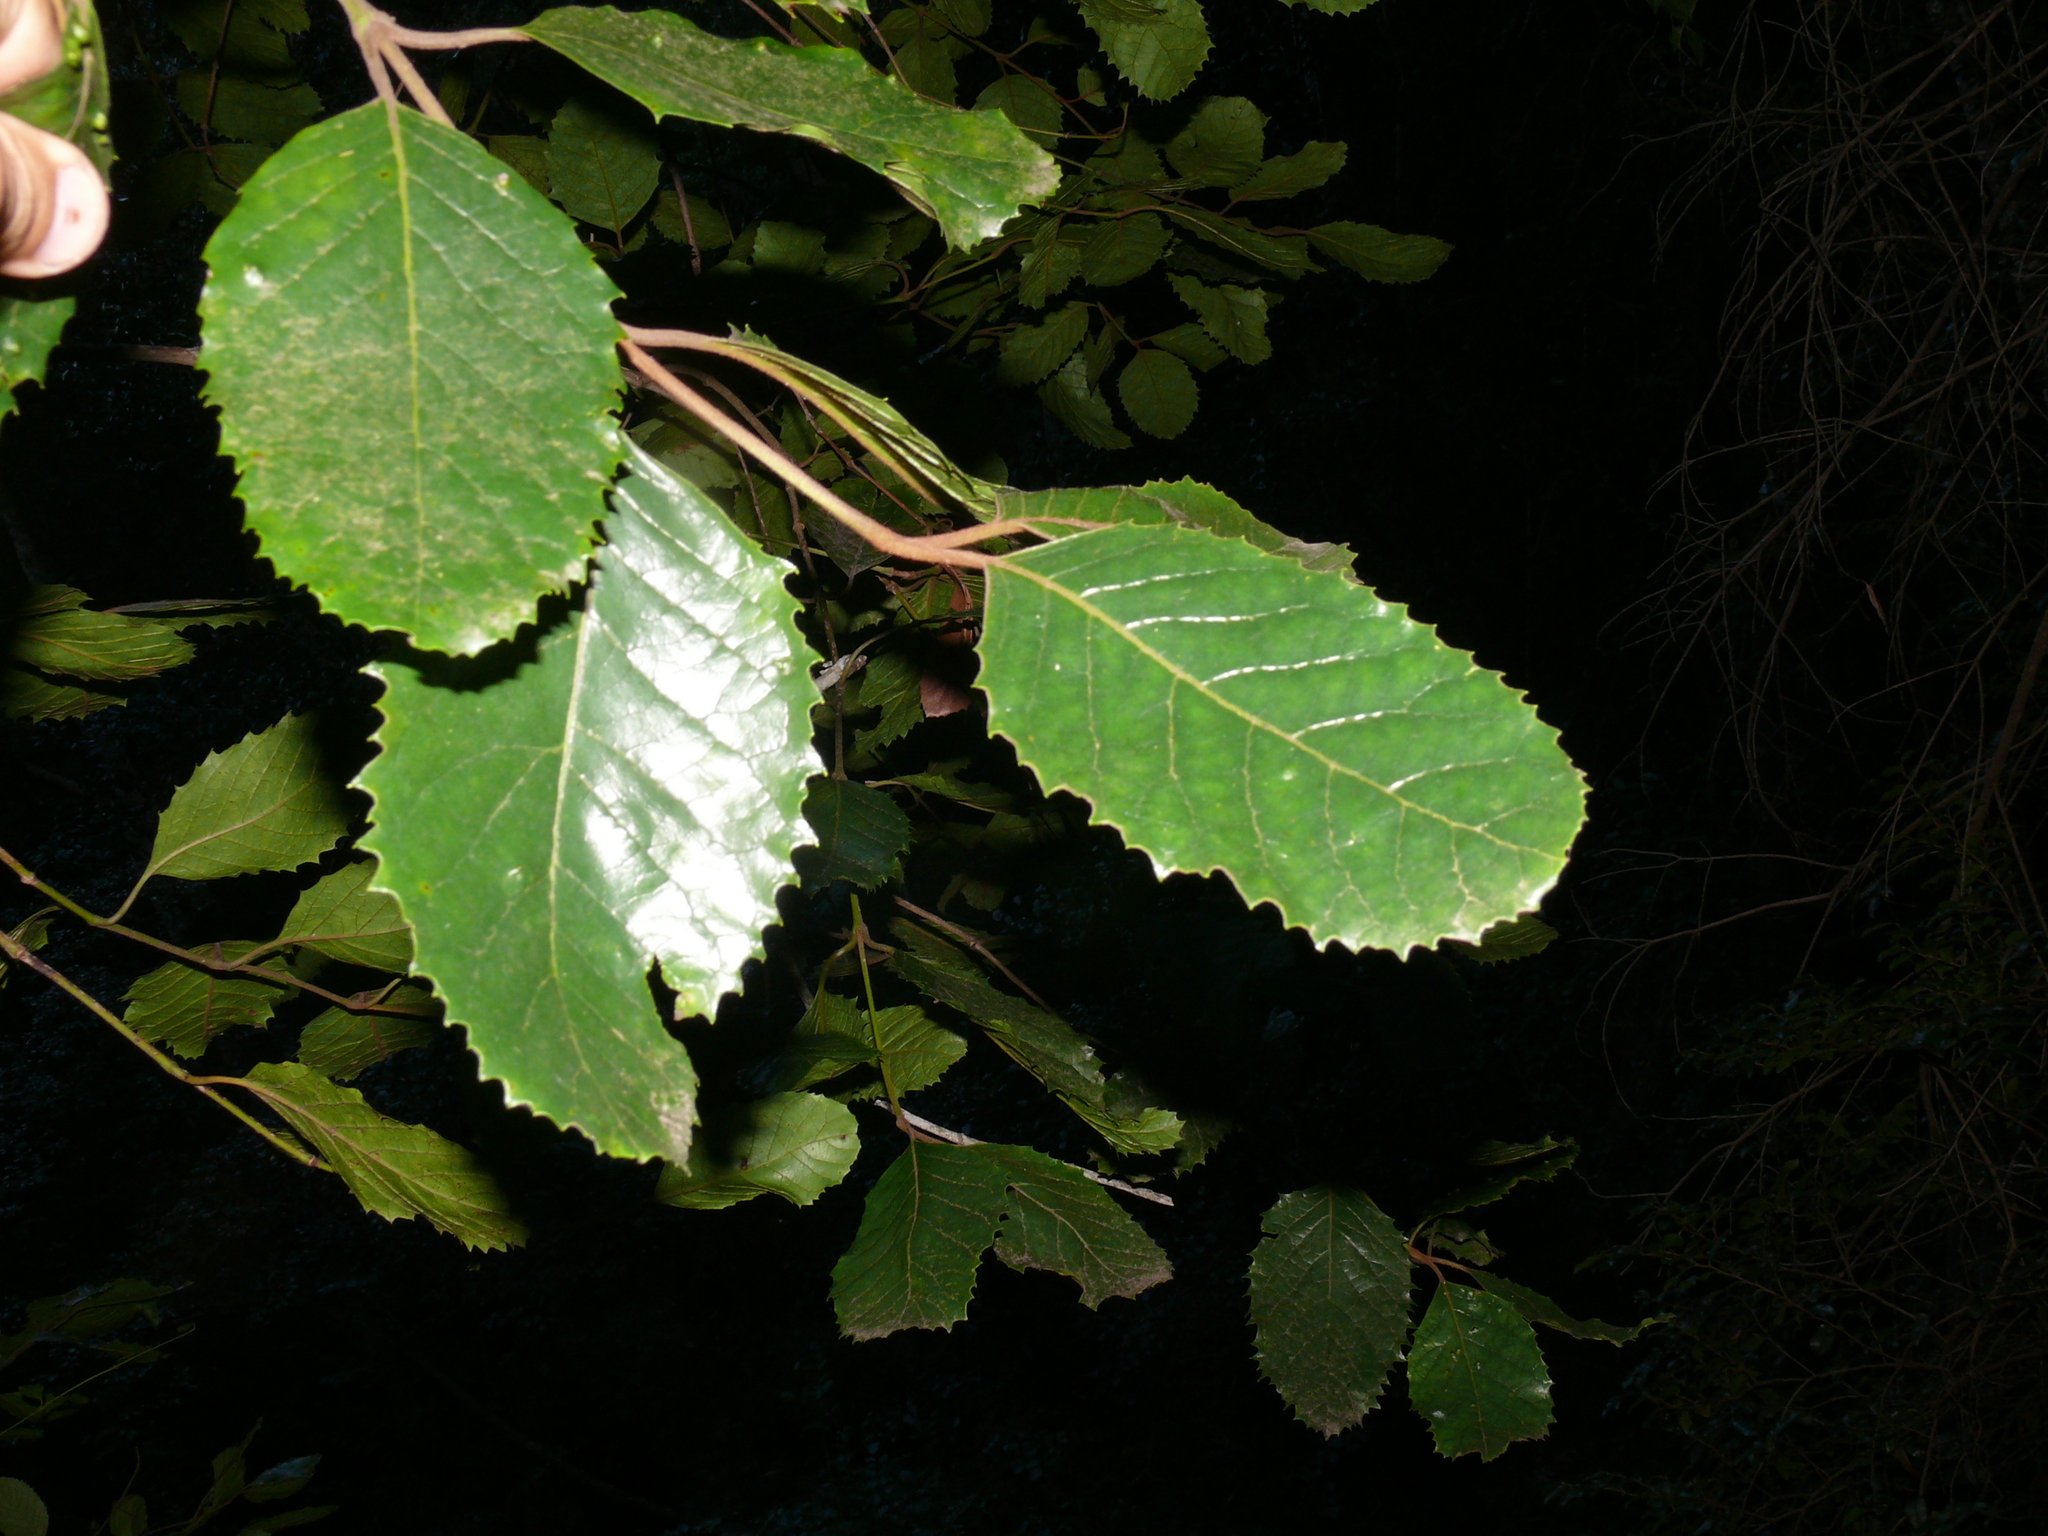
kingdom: Plantae
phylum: Tracheophyta
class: Magnoliopsida
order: Cornales
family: Curtisiaceae
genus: Curtisia
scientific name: Curtisia dentata
